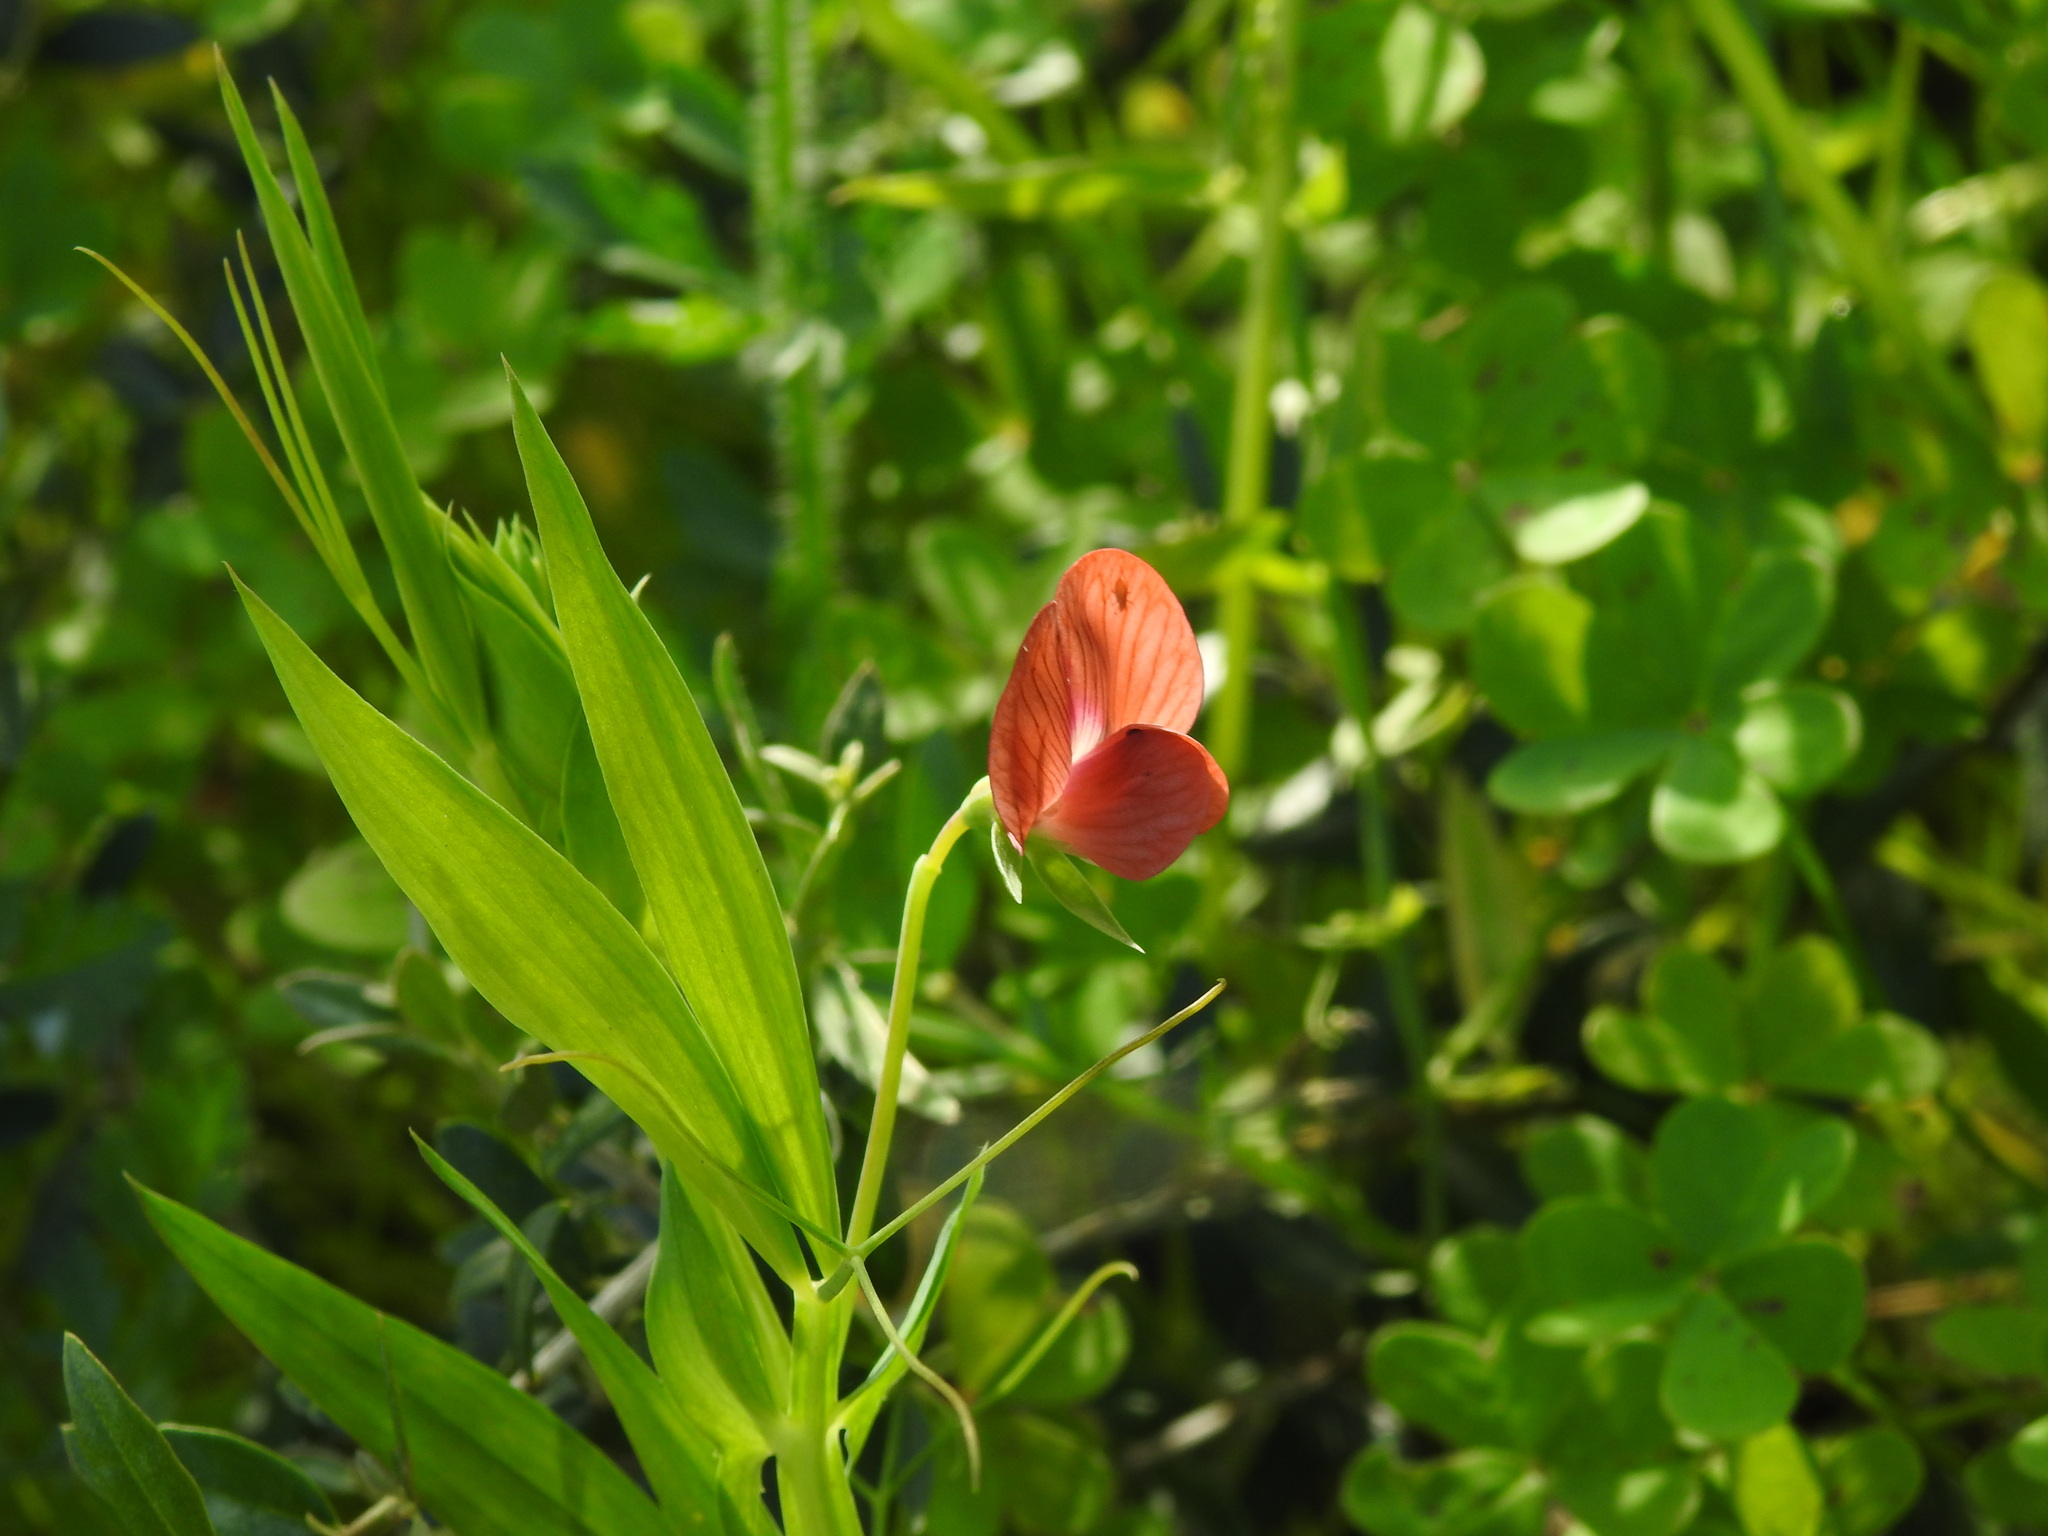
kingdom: Plantae
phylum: Tracheophyta
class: Magnoliopsida
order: Fabales
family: Fabaceae
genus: Lathyrus
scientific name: Lathyrus cicera
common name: Red vetchling
